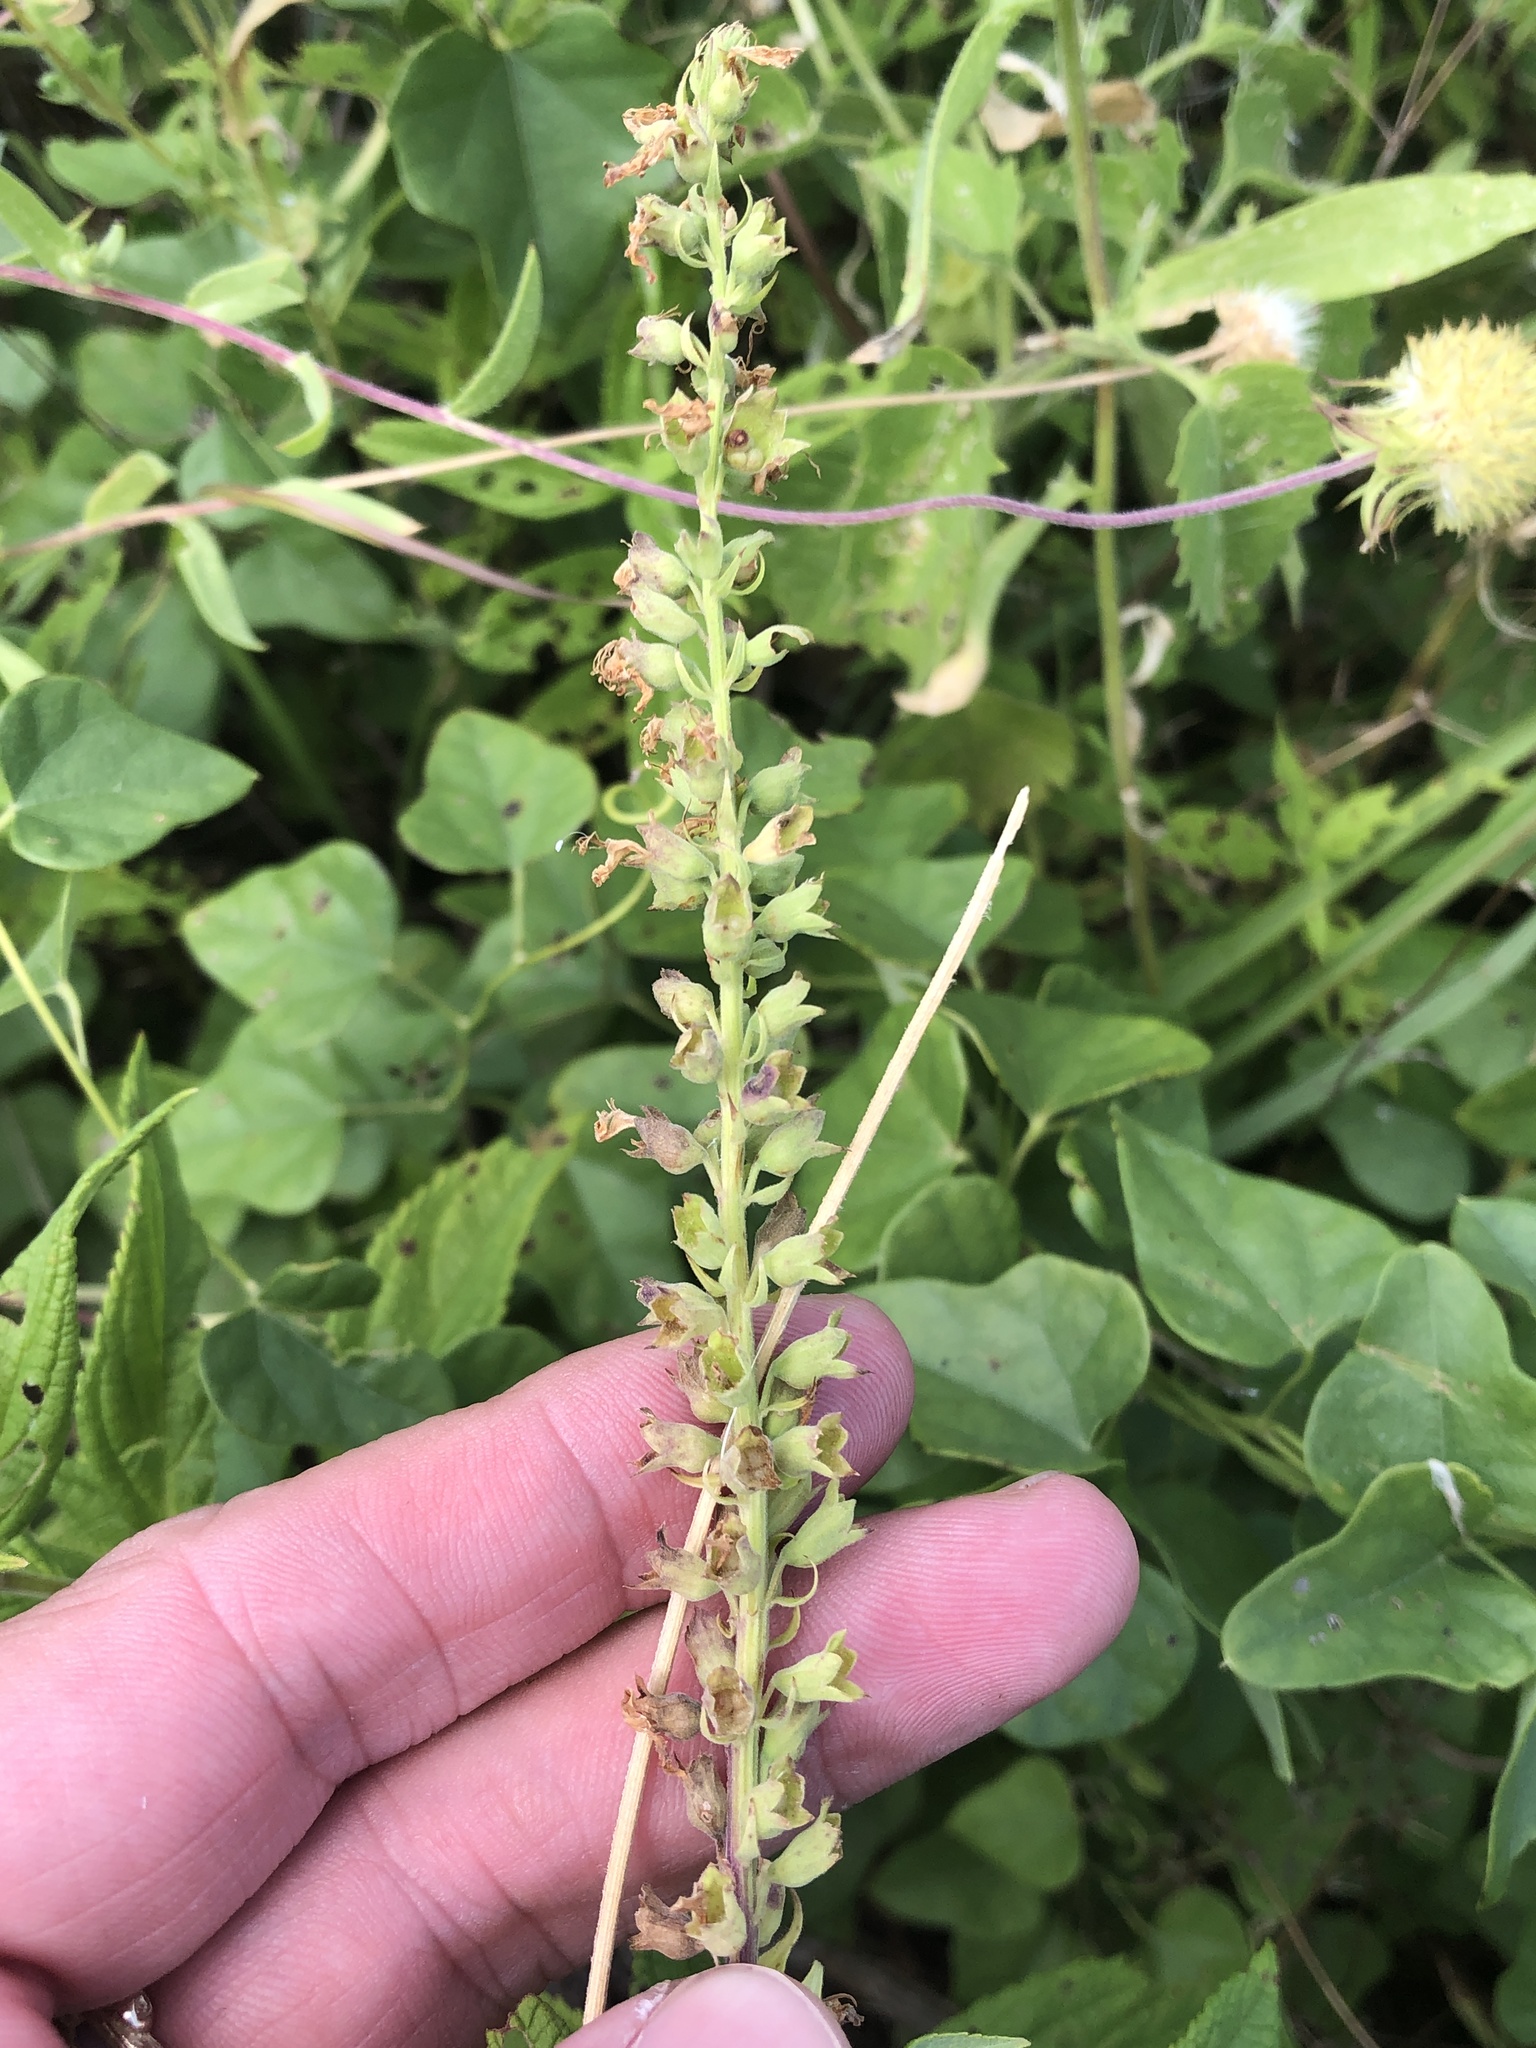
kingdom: Plantae
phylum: Tracheophyta
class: Magnoliopsida
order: Lamiales
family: Lamiaceae
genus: Teucrium
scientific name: Teucrium canadense
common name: American germander
